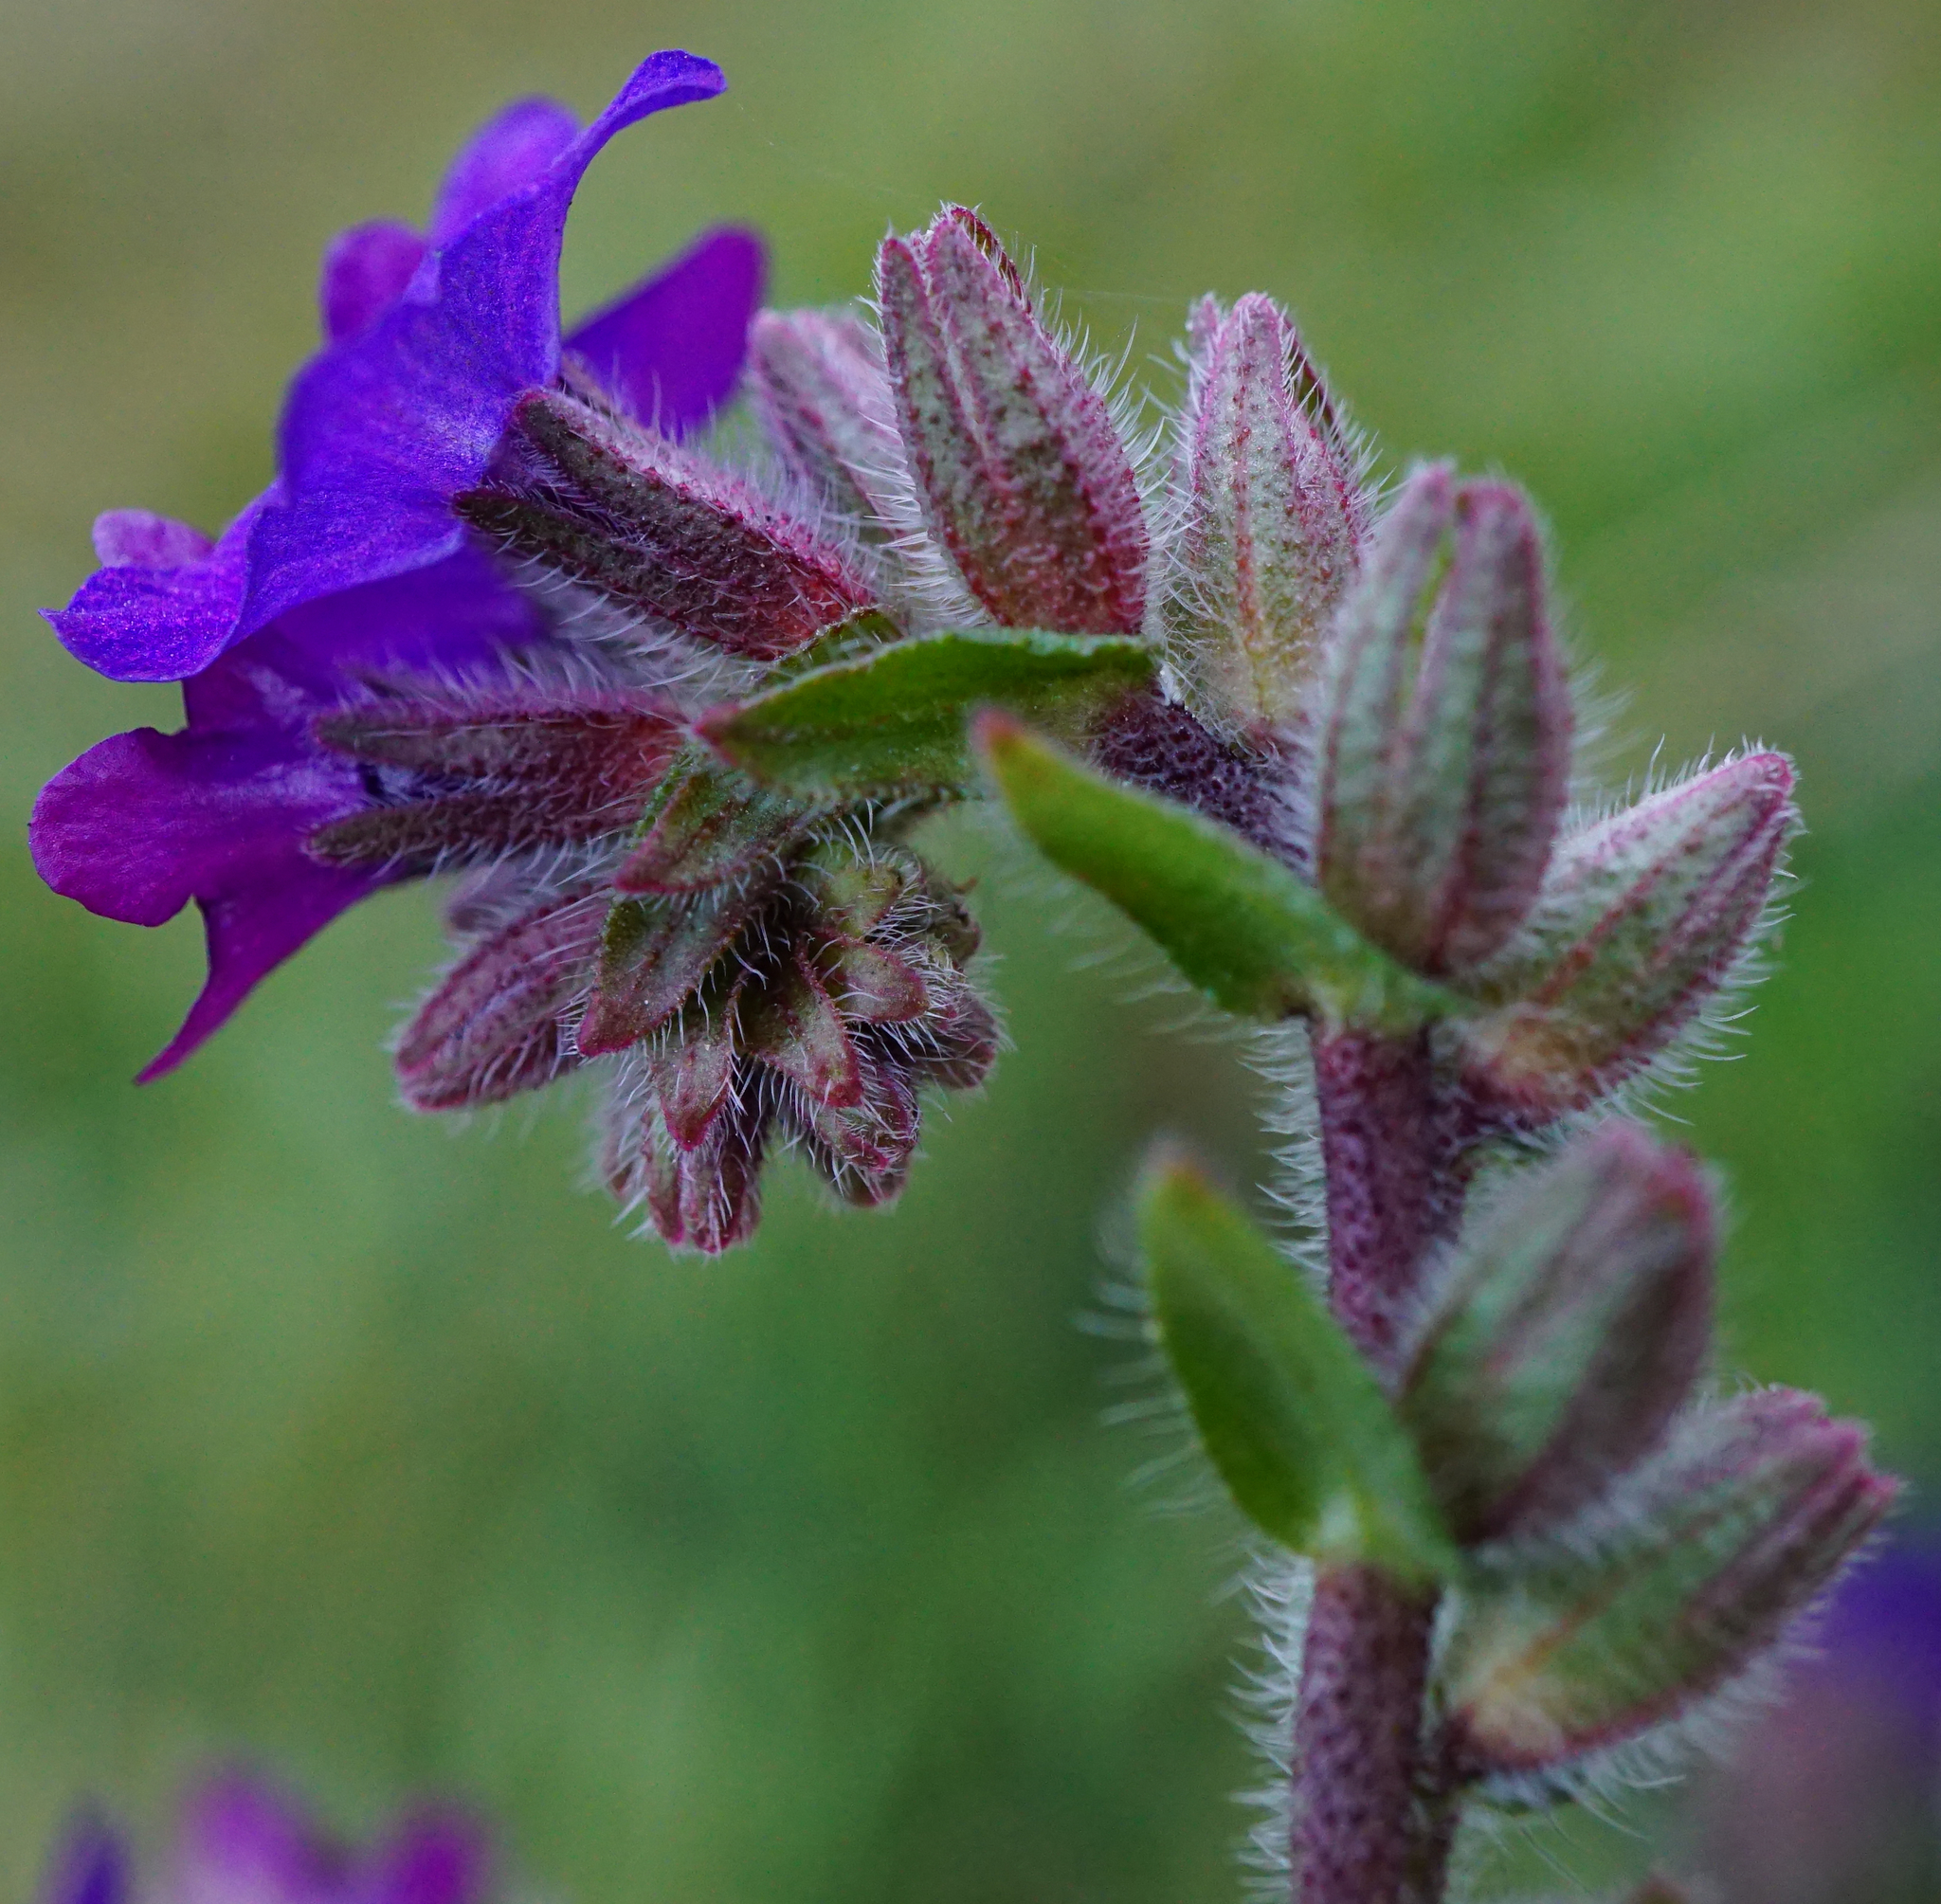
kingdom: Plantae
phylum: Tracheophyta
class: Magnoliopsida
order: Boraginales
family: Boraginaceae
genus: Anchusa
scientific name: Anchusa officinalis
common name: Alkanet
